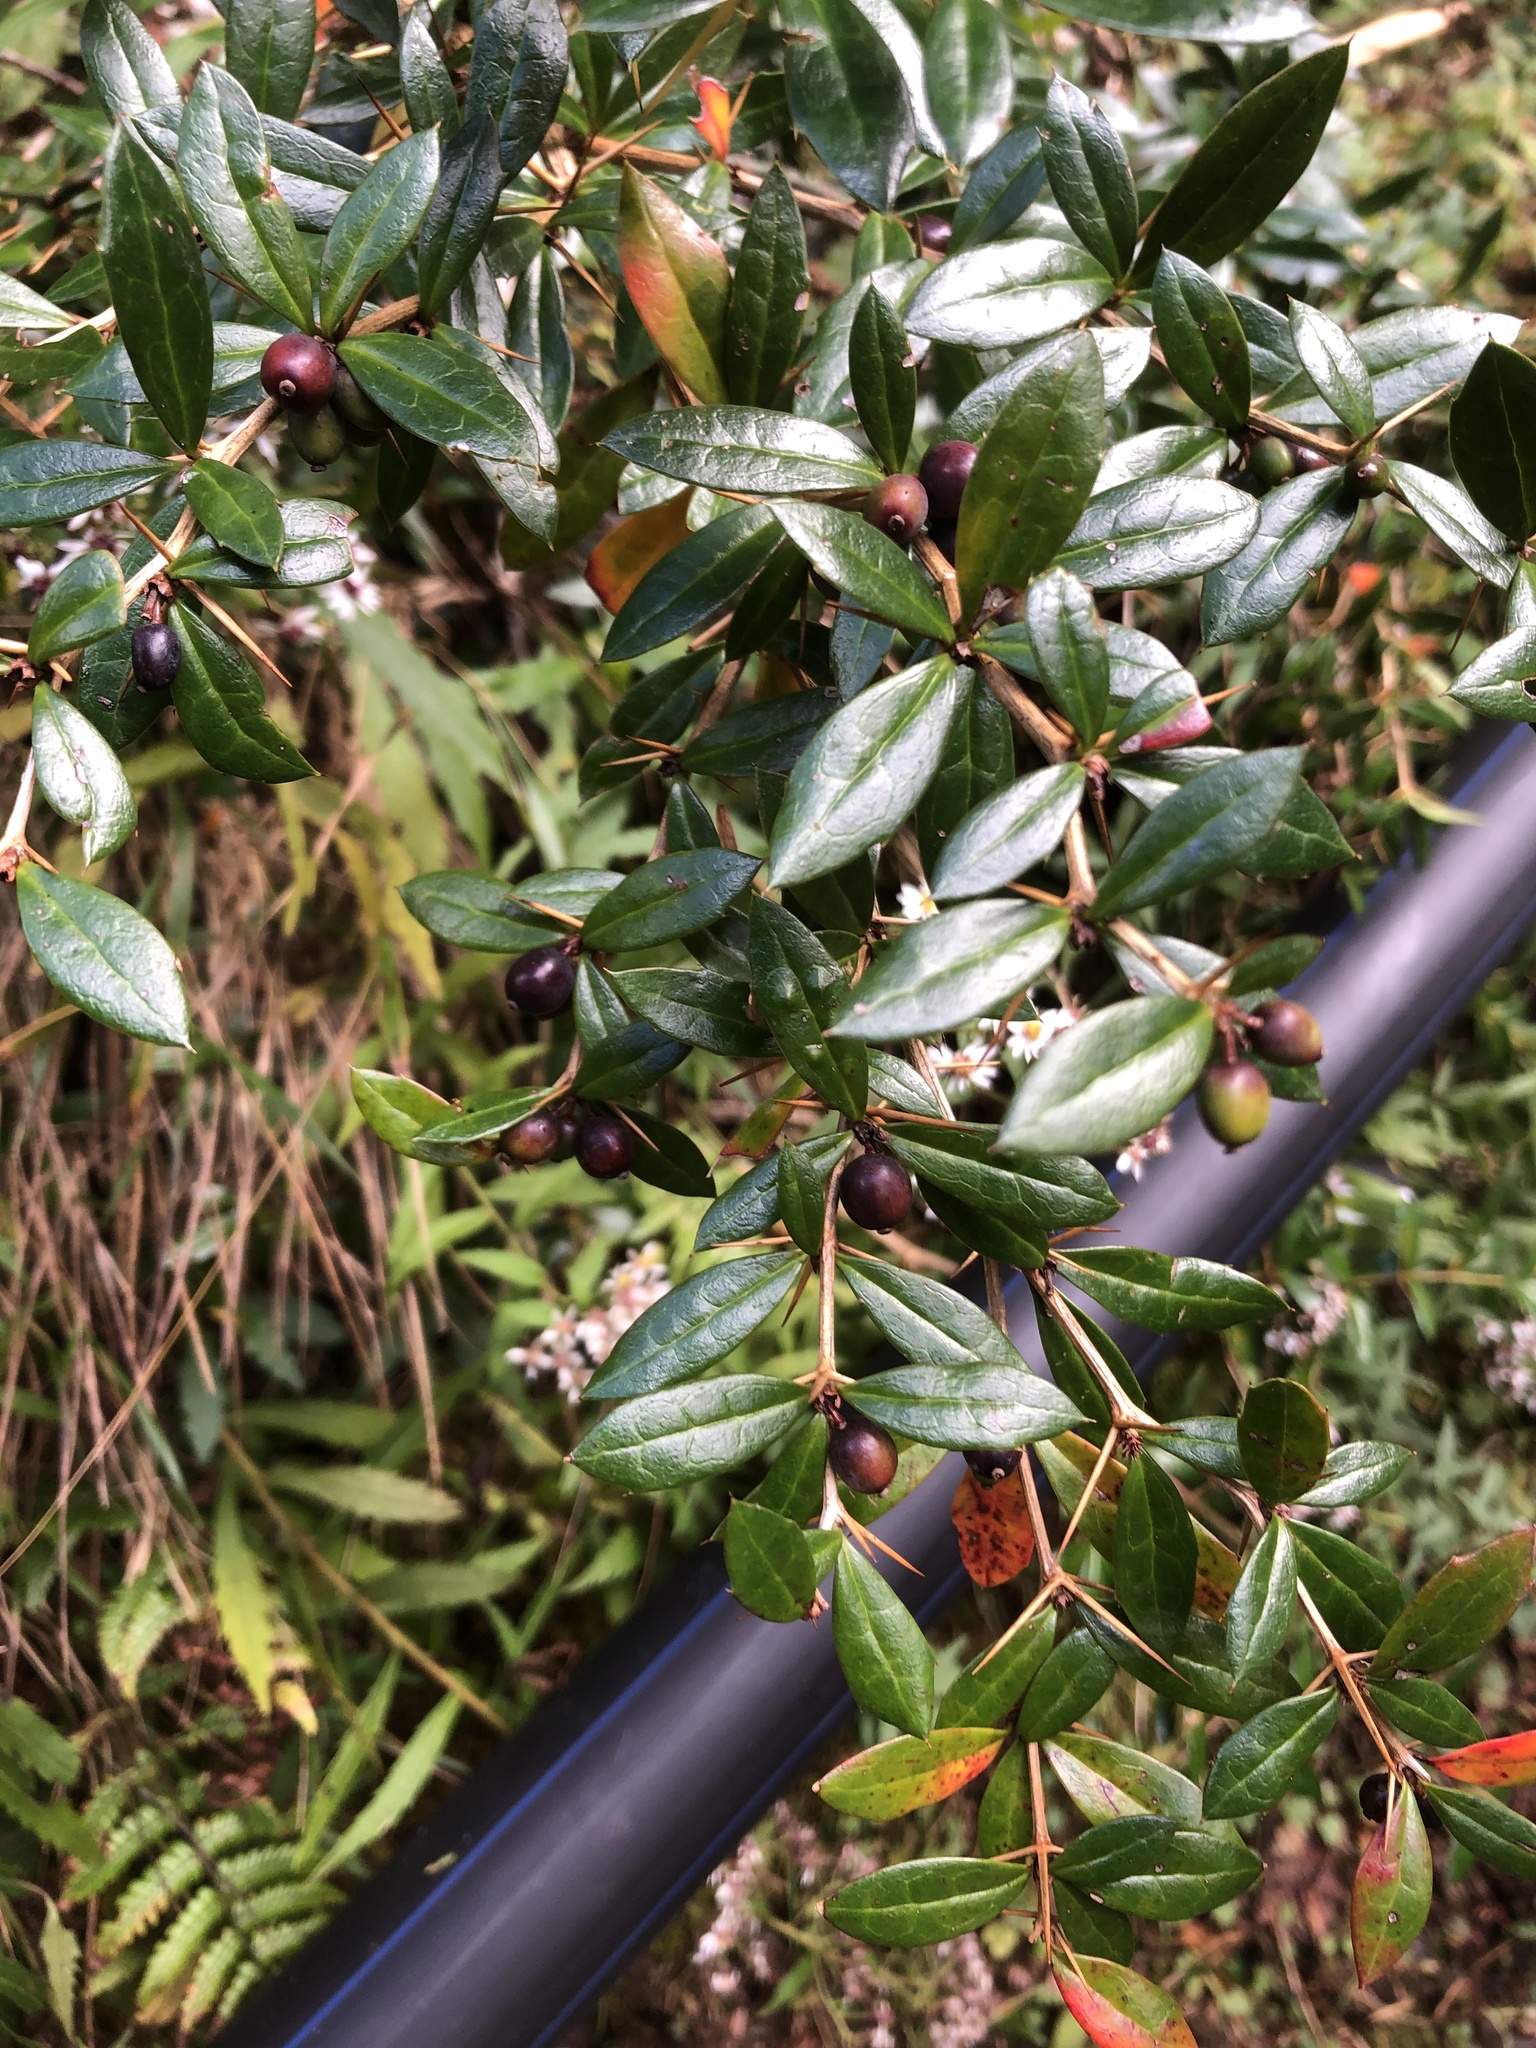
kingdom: Plantae
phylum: Tracheophyta
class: Magnoliopsida
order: Ranunculales
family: Berberidaceae
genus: Berberis
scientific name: Berberis nantoensis
